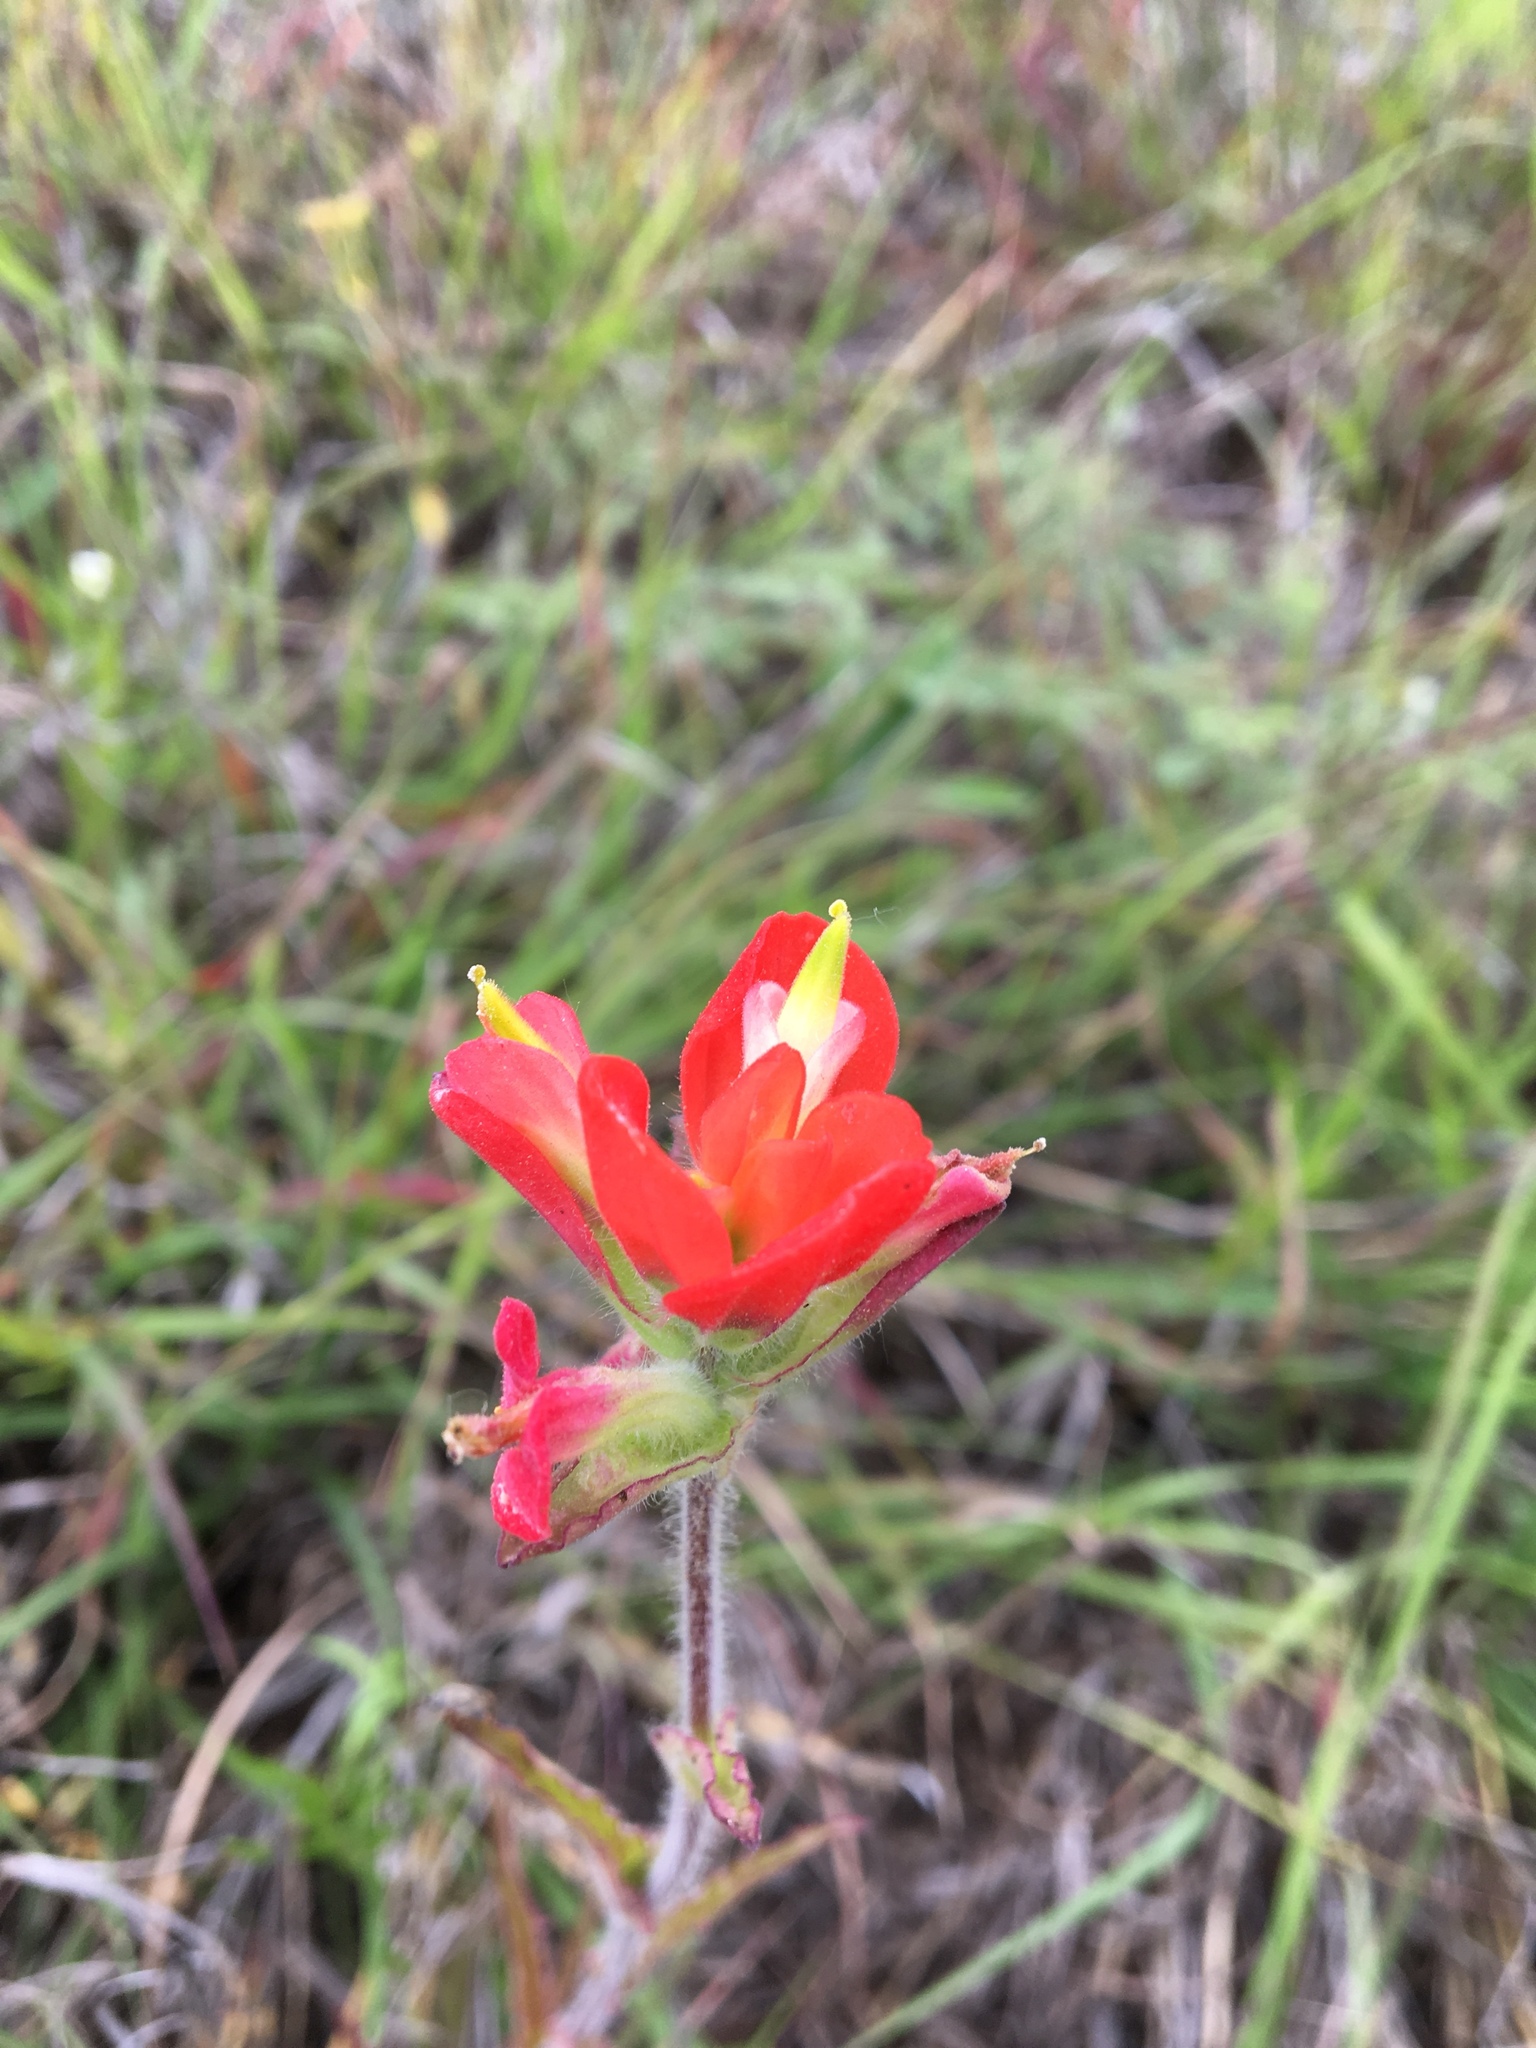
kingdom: Plantae
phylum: Tracheophyta
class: Magnoliopsida
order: Lamiales
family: Orobanchaceae
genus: Castilleja
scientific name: Castilleja indivisa
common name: Texas paintbrush
